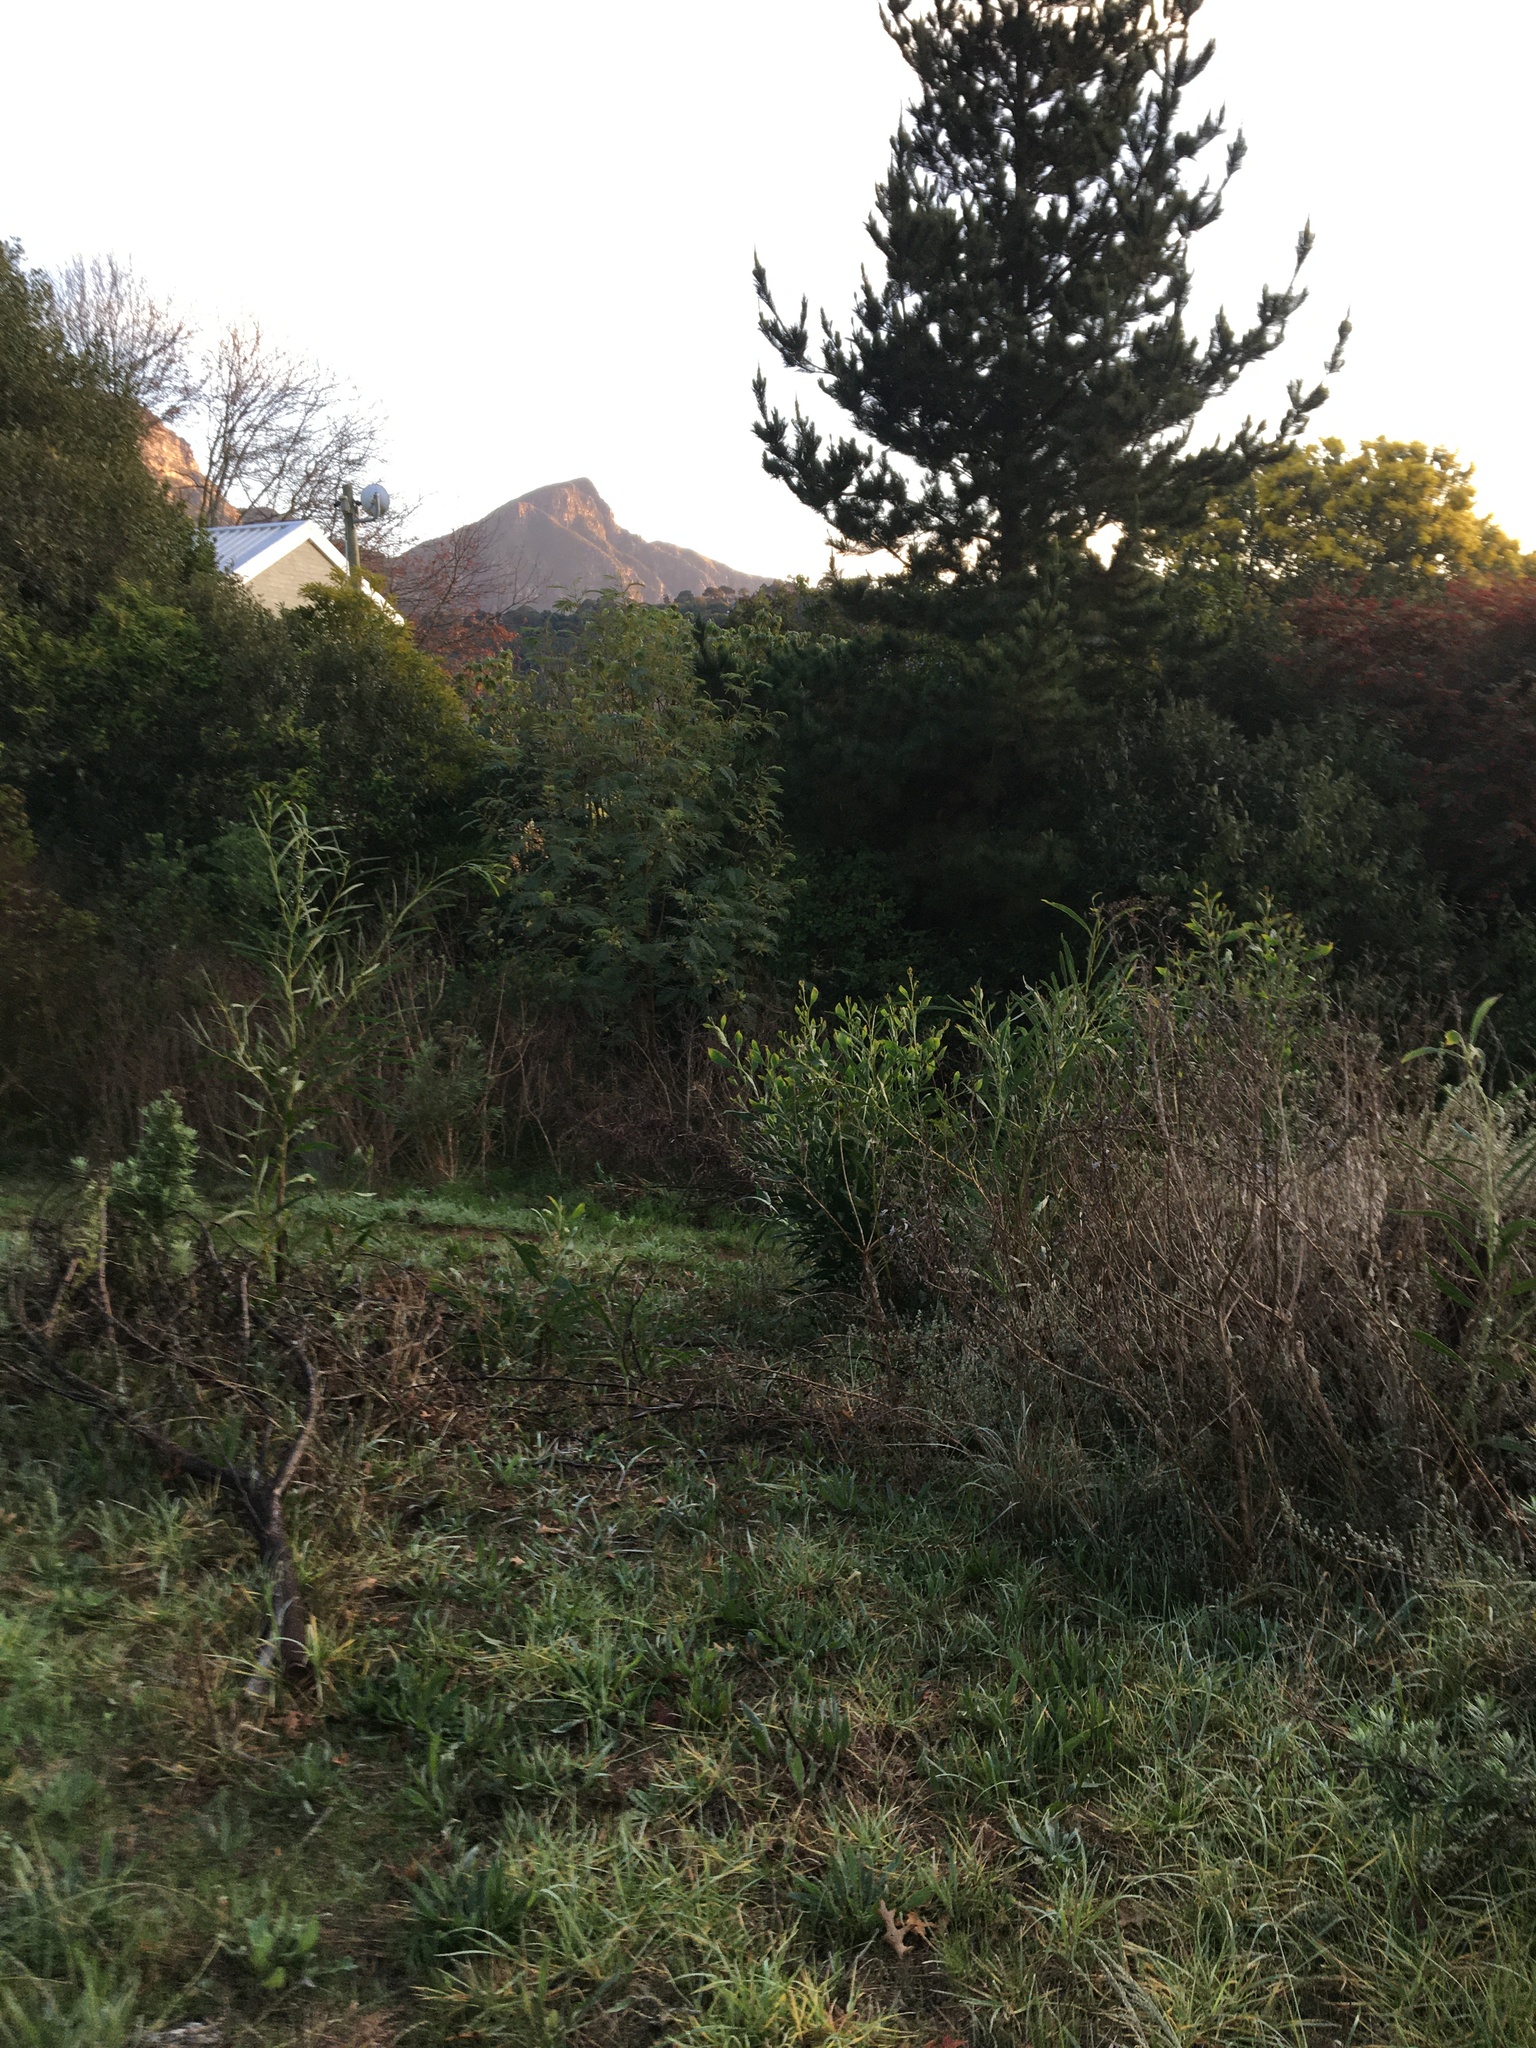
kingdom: Plantae
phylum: Tracheophyta
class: Magnoliopsida
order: Fabales
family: Fabaceae
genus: Acacia
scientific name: Acacia saligna
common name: Orange wattle
